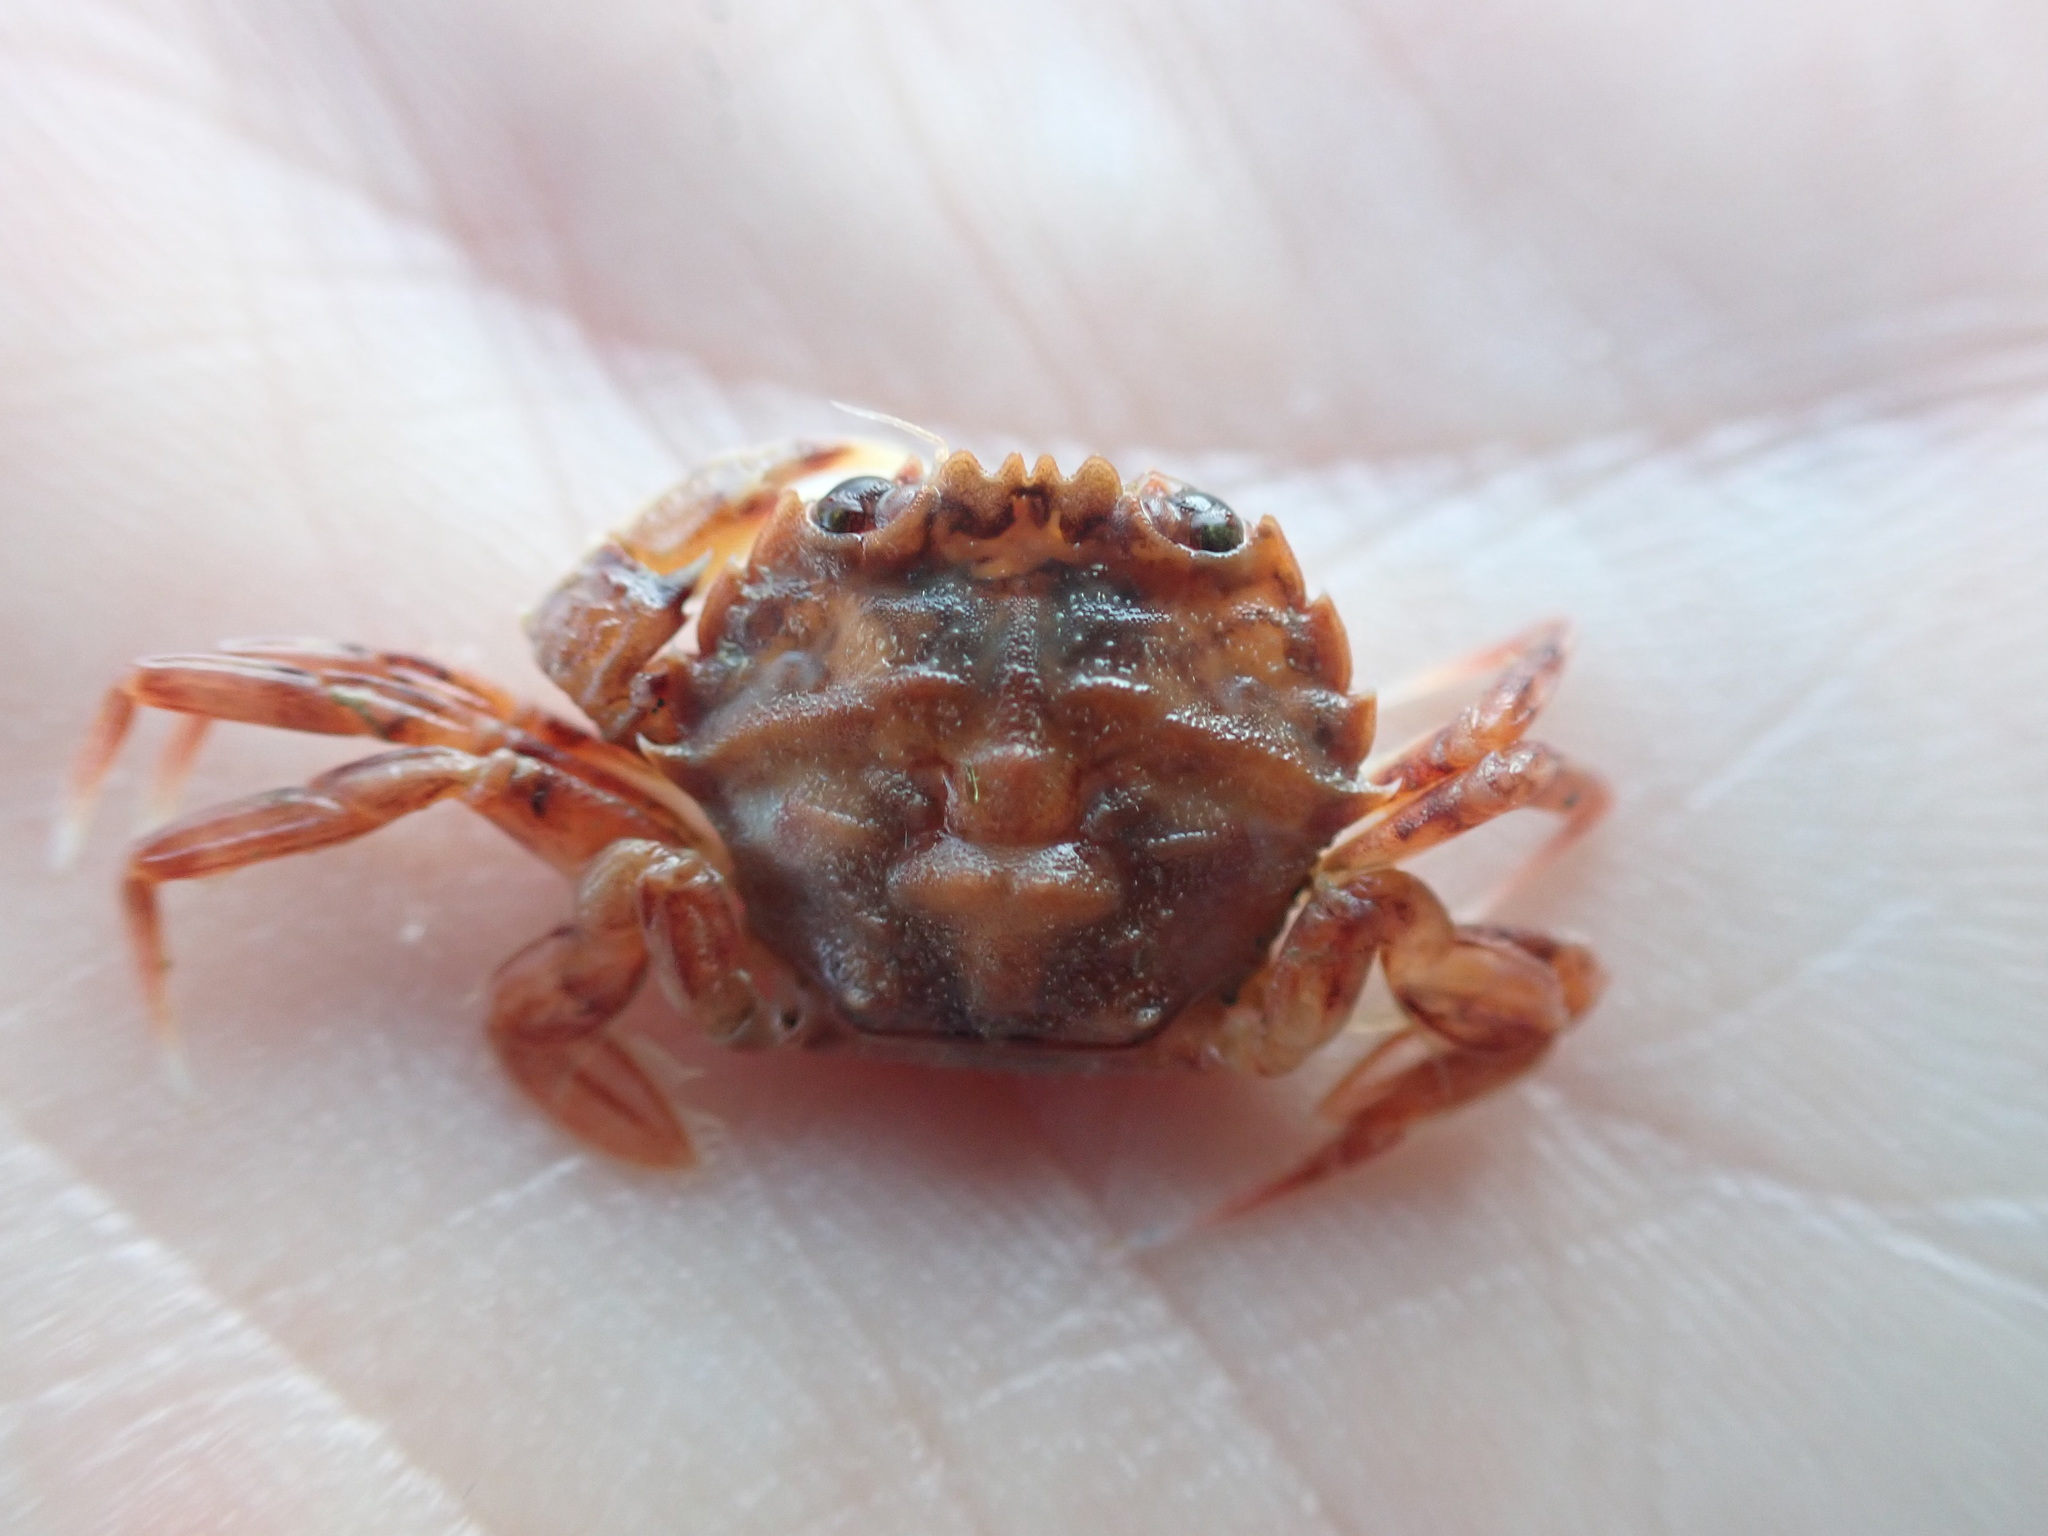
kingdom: Animalia
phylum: Arthropoda
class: Malacostraca
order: Decapoda
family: Geryonidae
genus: Nectocarcinus
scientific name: Nectocarcinus antarcticus
